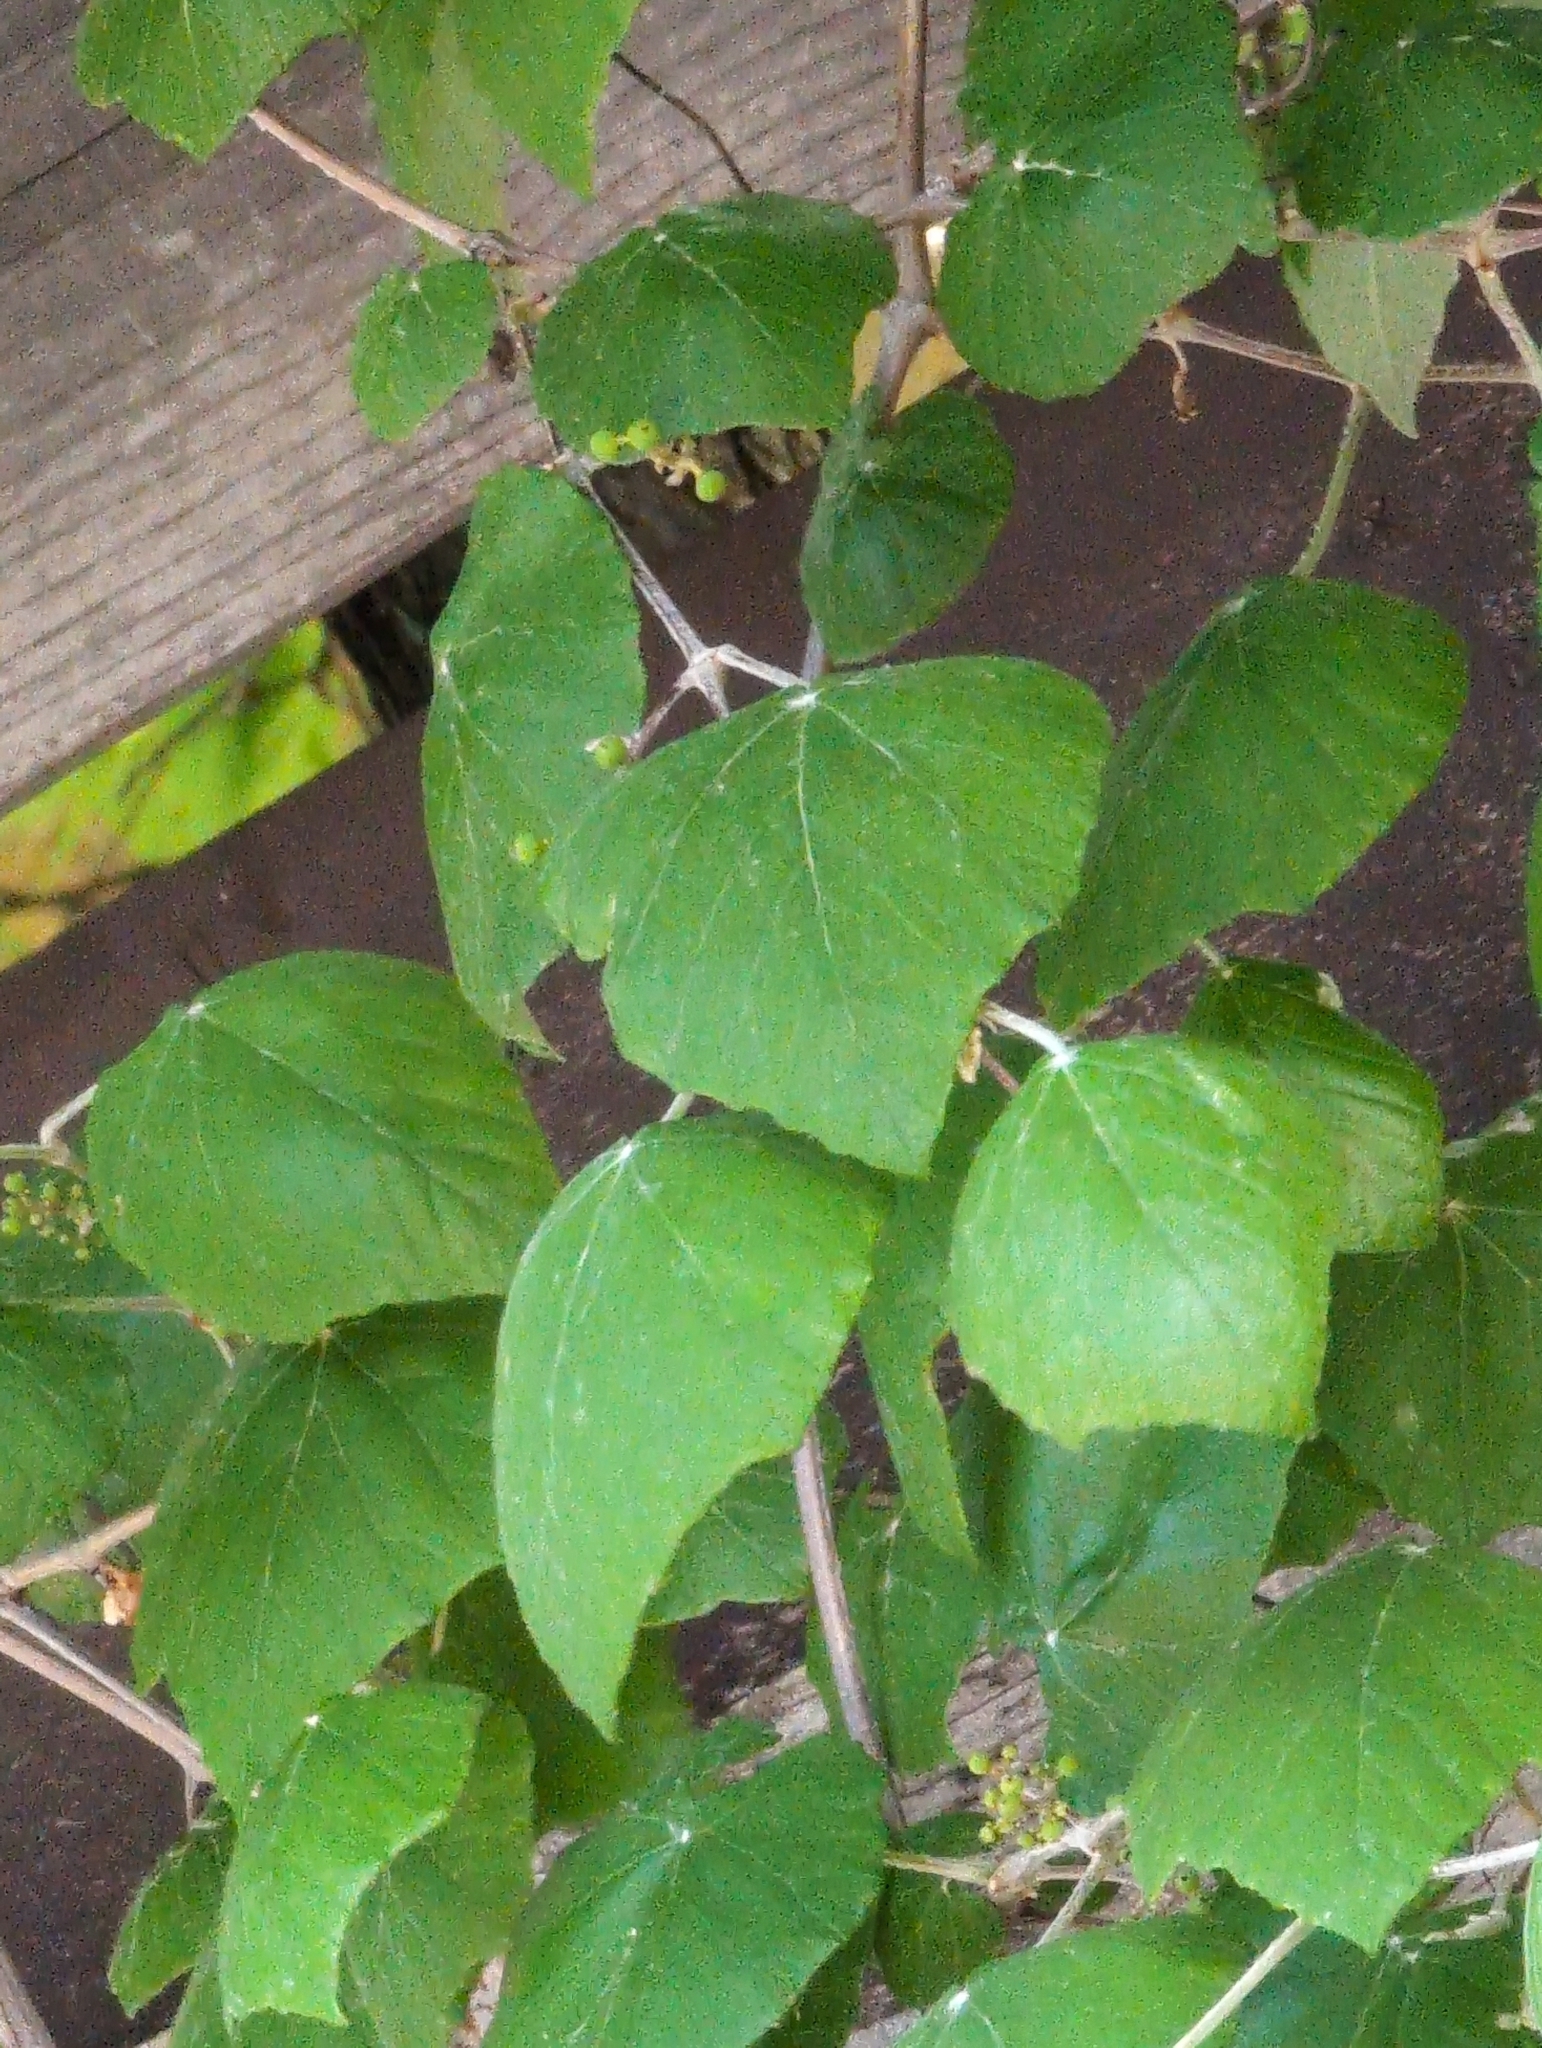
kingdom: Plantae
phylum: Tracheophyta
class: Magnoliopsida
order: Vitales
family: Vitaceae
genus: Vitis
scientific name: Vitis mustangensis
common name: Mustang grape
